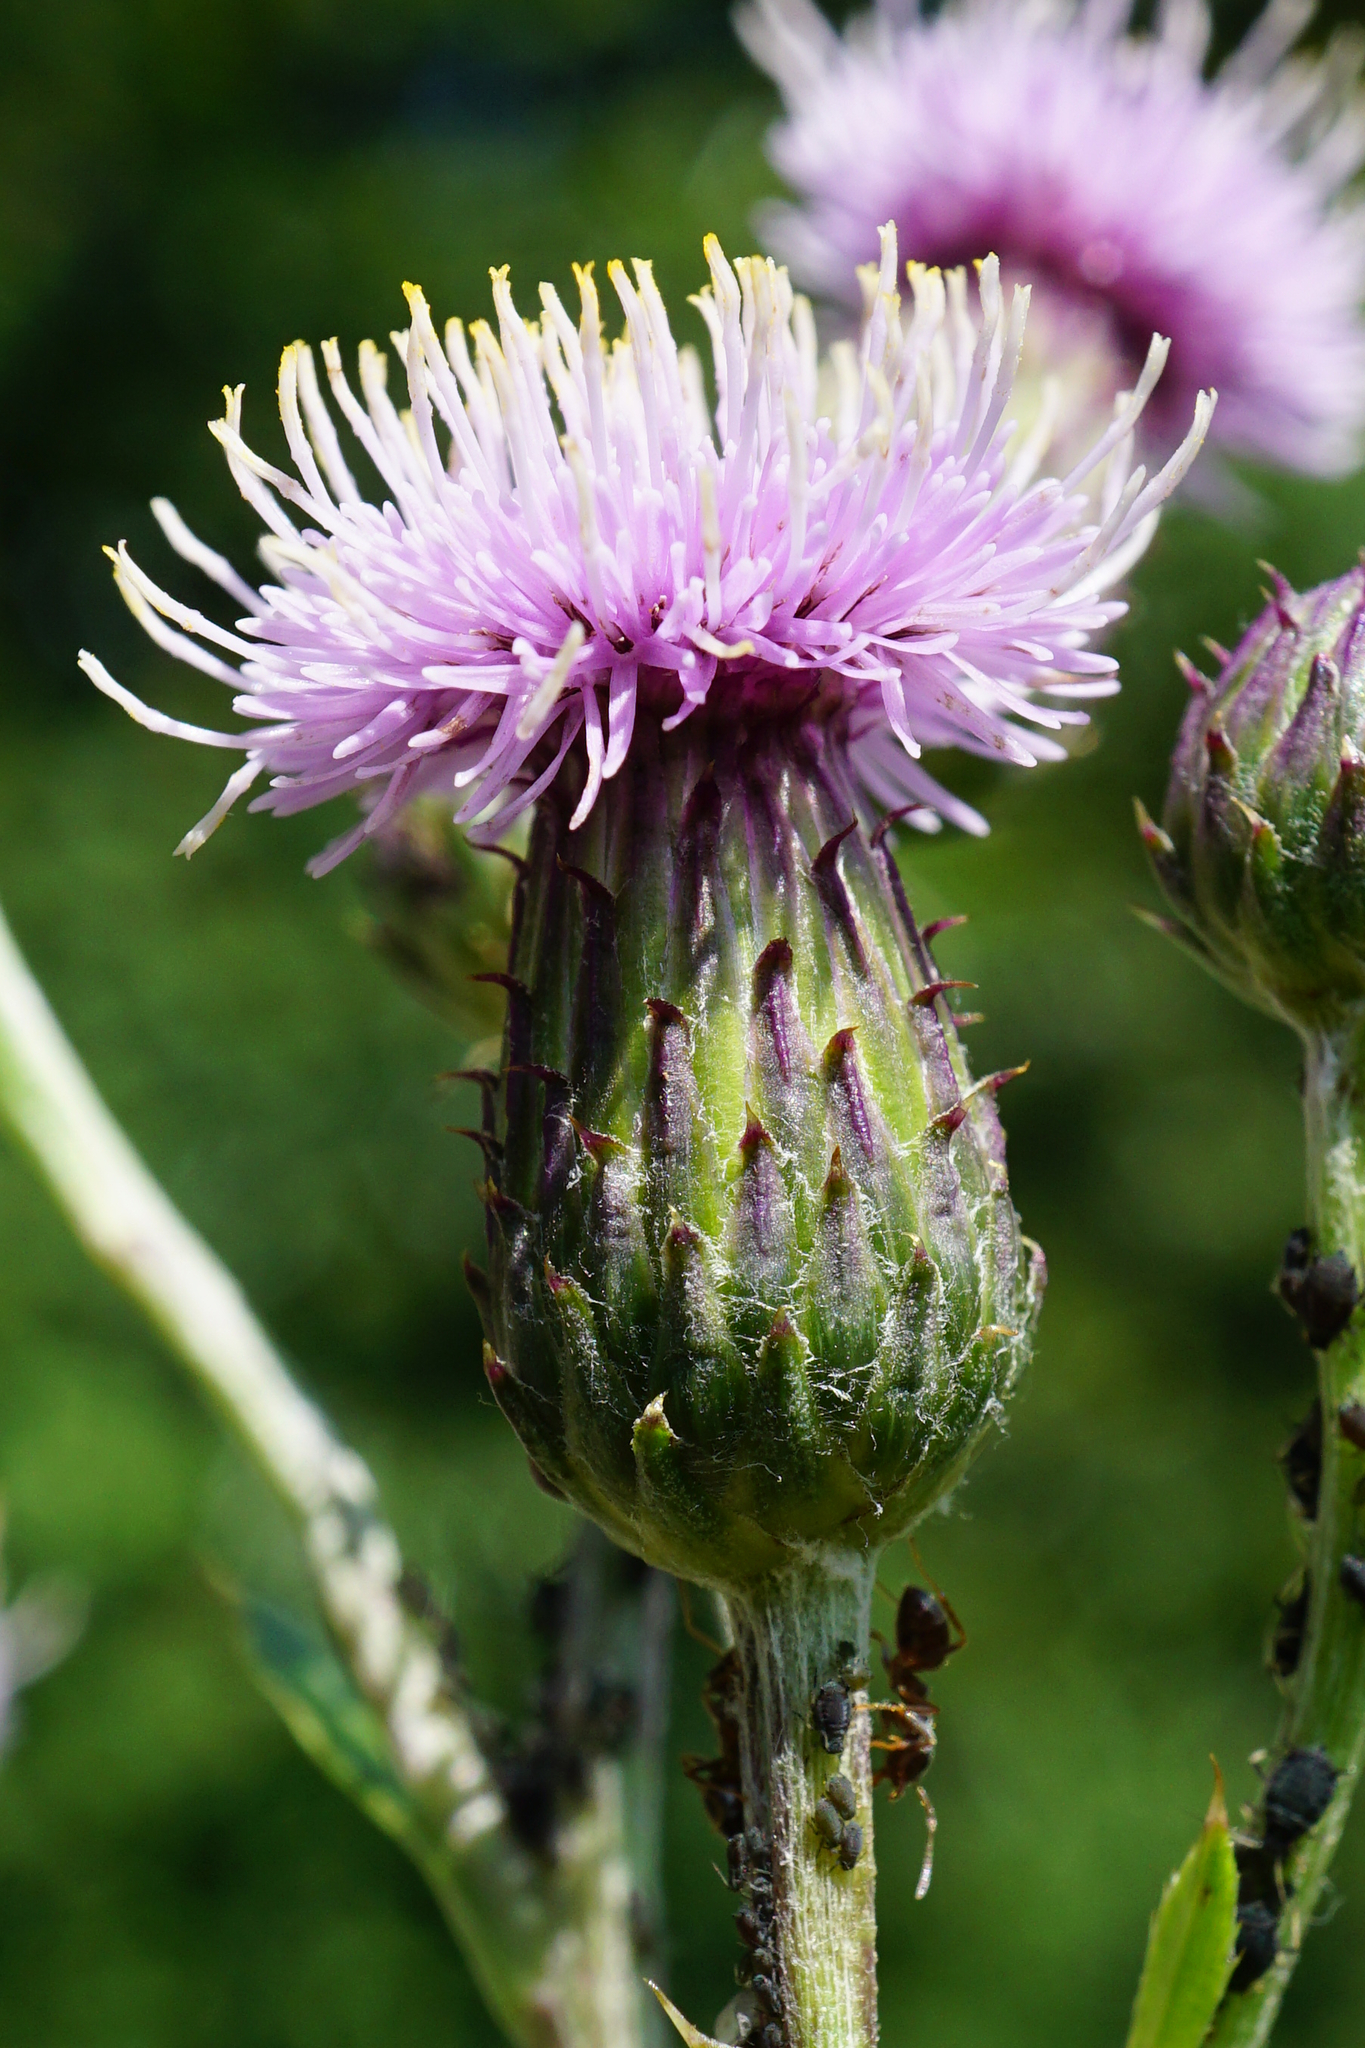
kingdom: Plantae
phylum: Tracheophyta
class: Magnoliopsida
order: Asterales
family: Asteraceae
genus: Cirsium
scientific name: Cirsium arvense
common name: Creeping thistle
